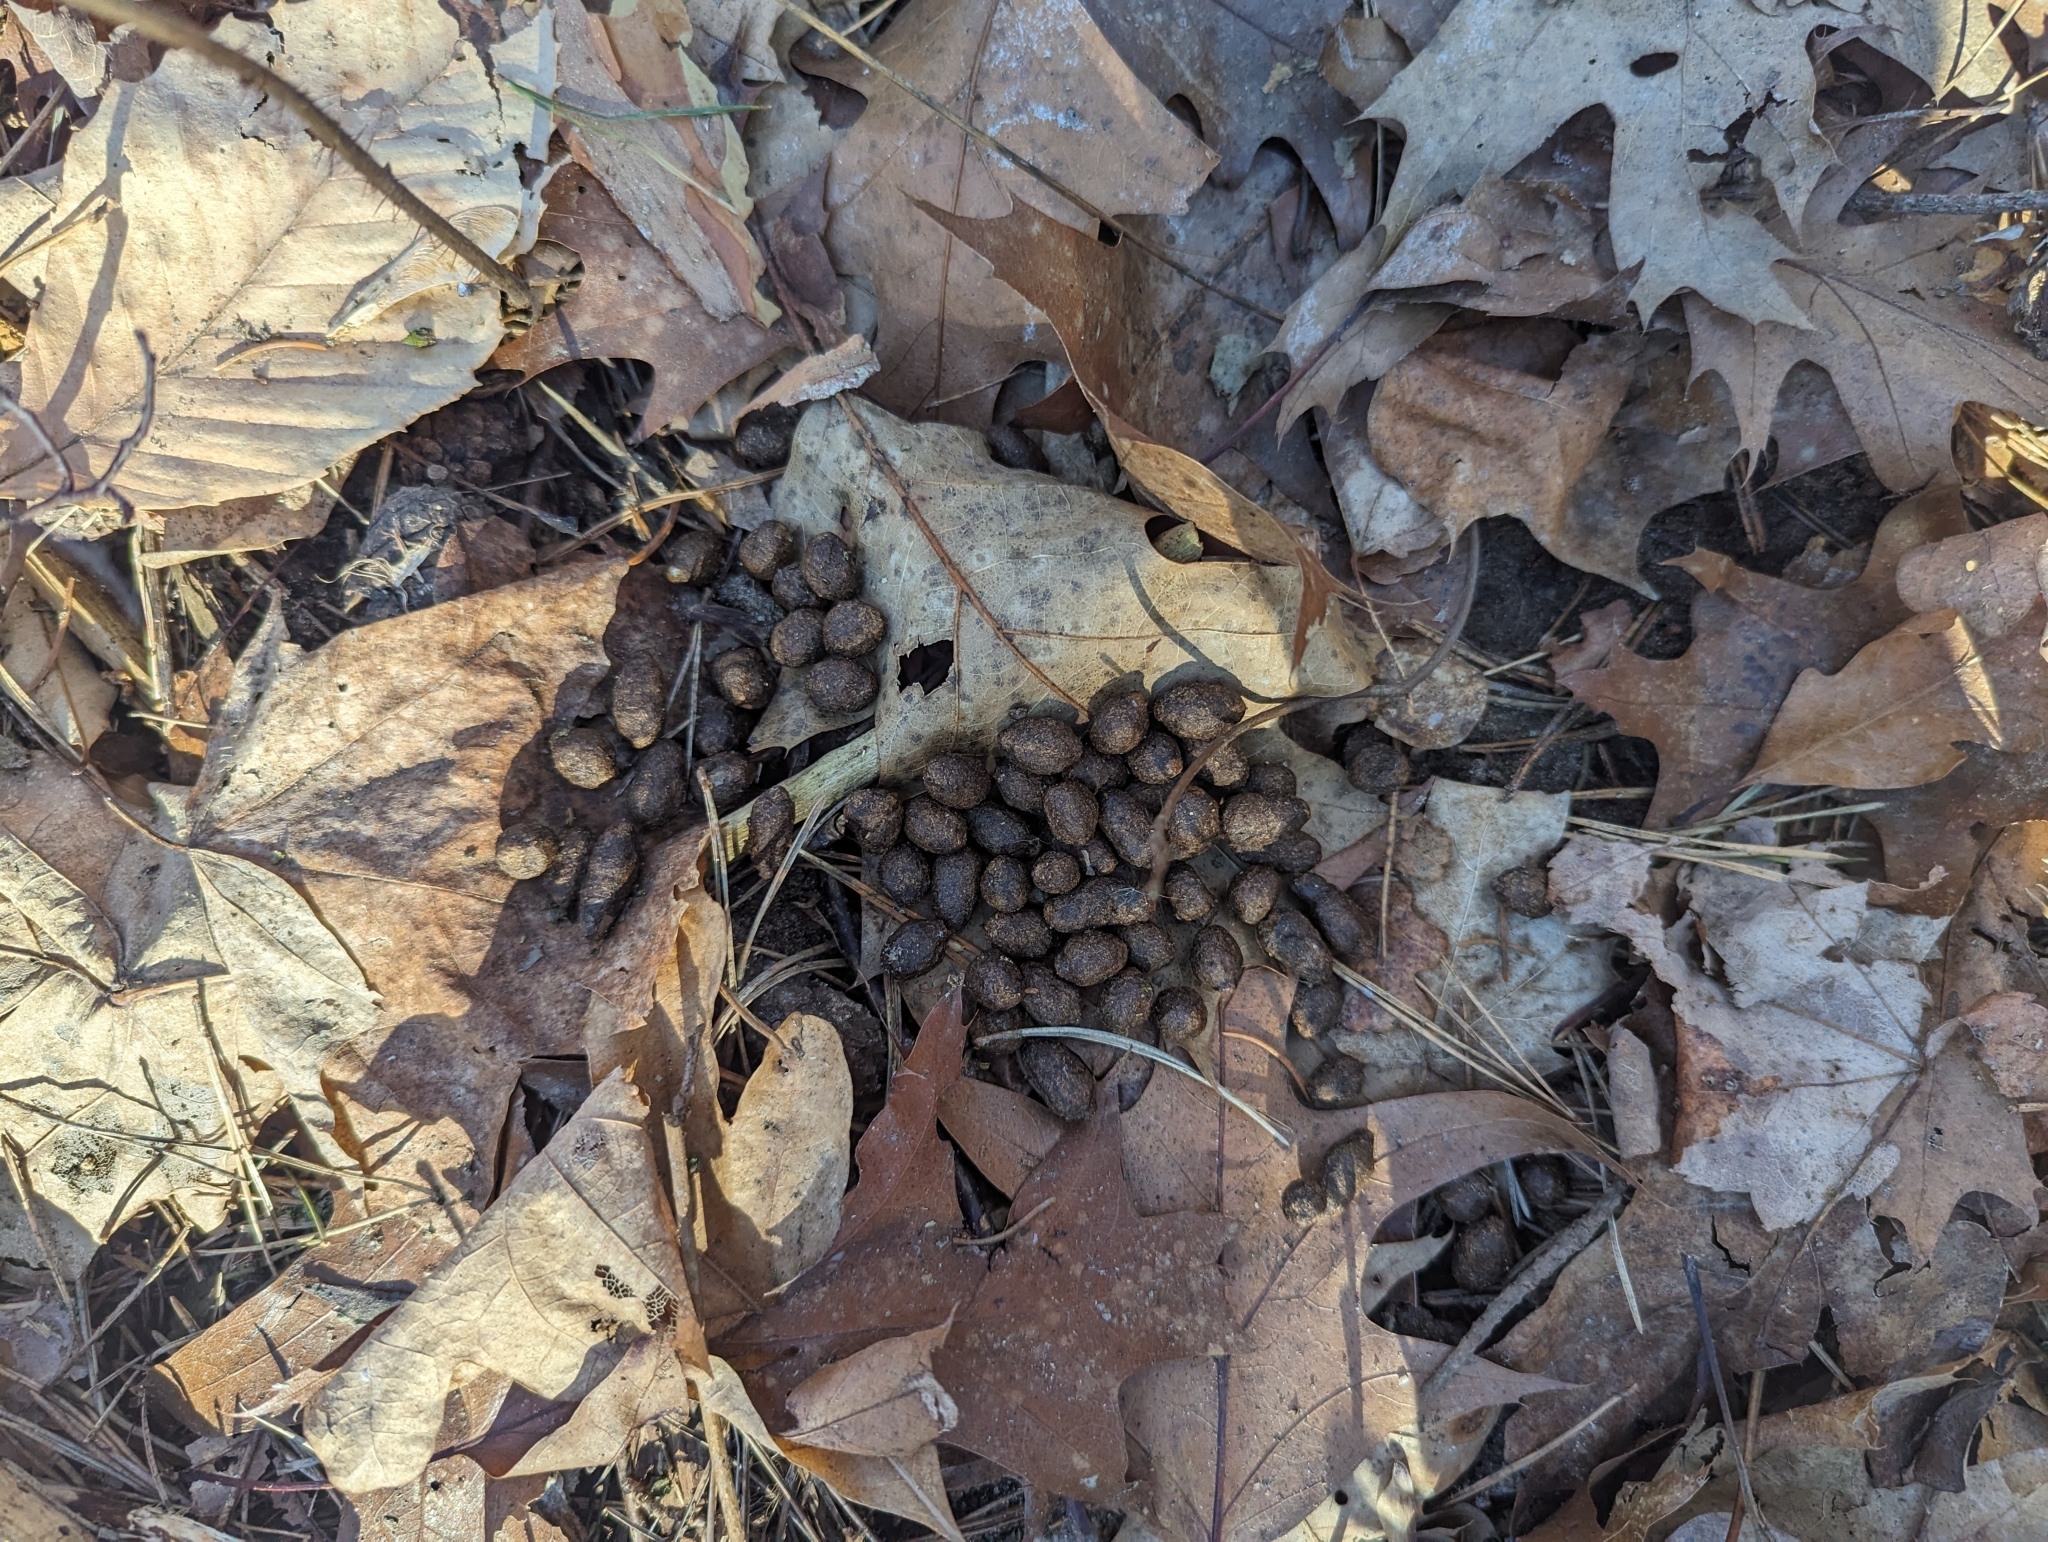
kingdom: Animalia
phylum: Chordata
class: Mammalia
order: Artiodactyla
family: Cervidae
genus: Odocoileus
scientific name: Odocoileus virginianus
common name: White-tailed deer
